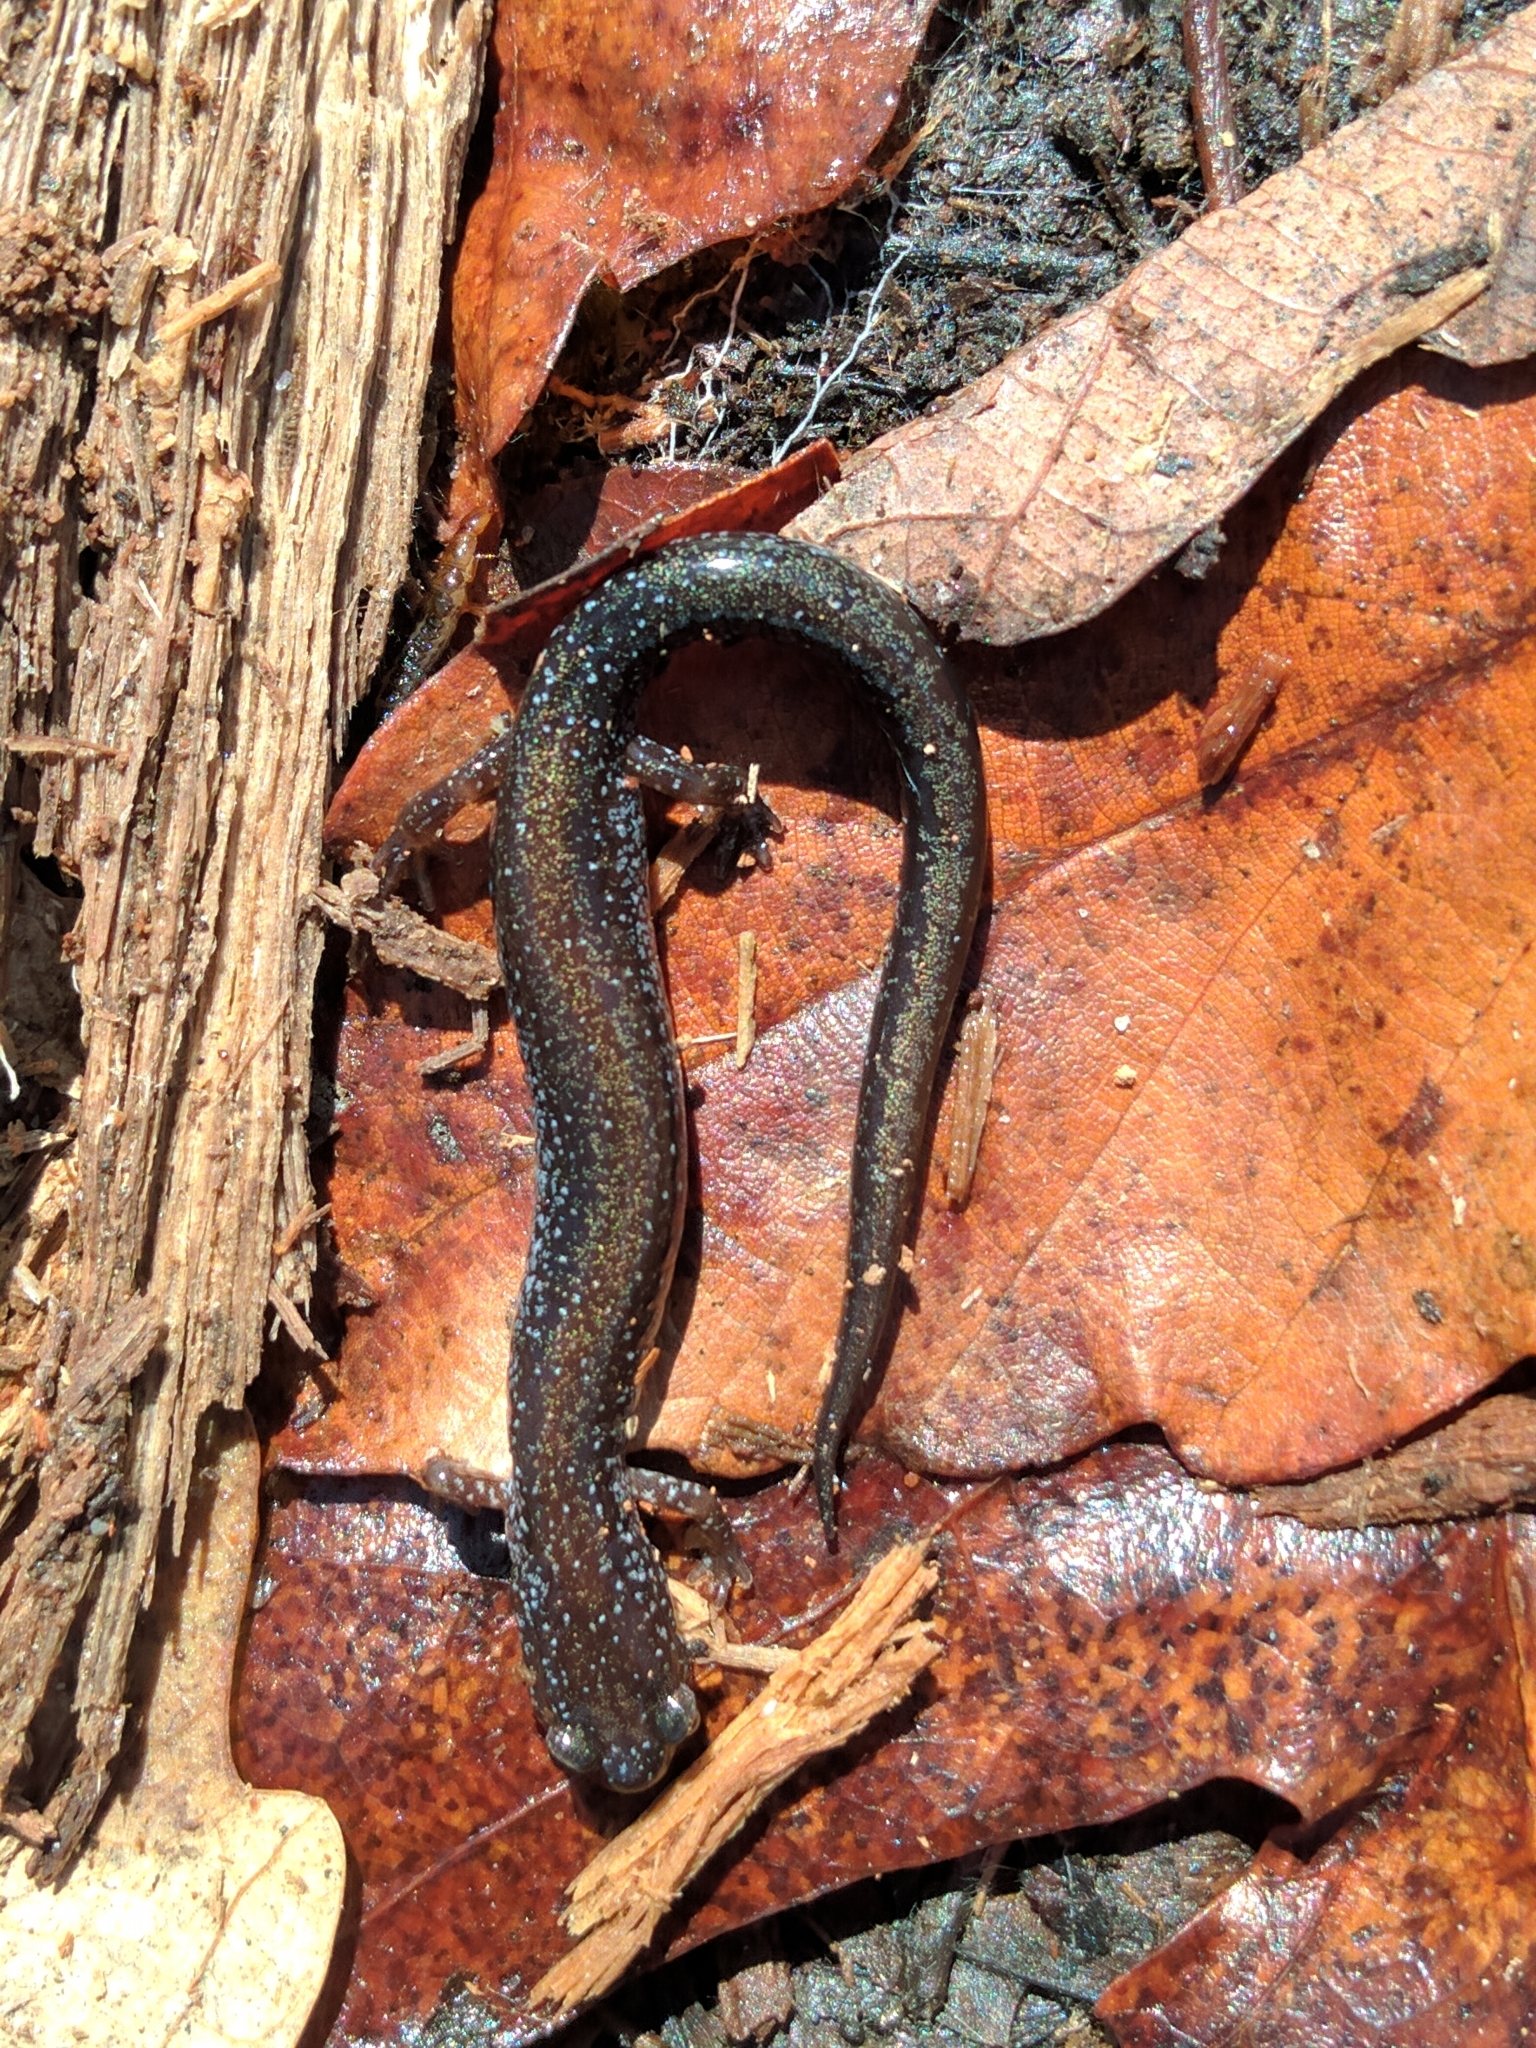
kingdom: Animalia
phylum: Chordata
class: Amphibia
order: Caudata
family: Plethodontidae
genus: Plethodon
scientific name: Plethodon cinereus
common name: Redback salamander
